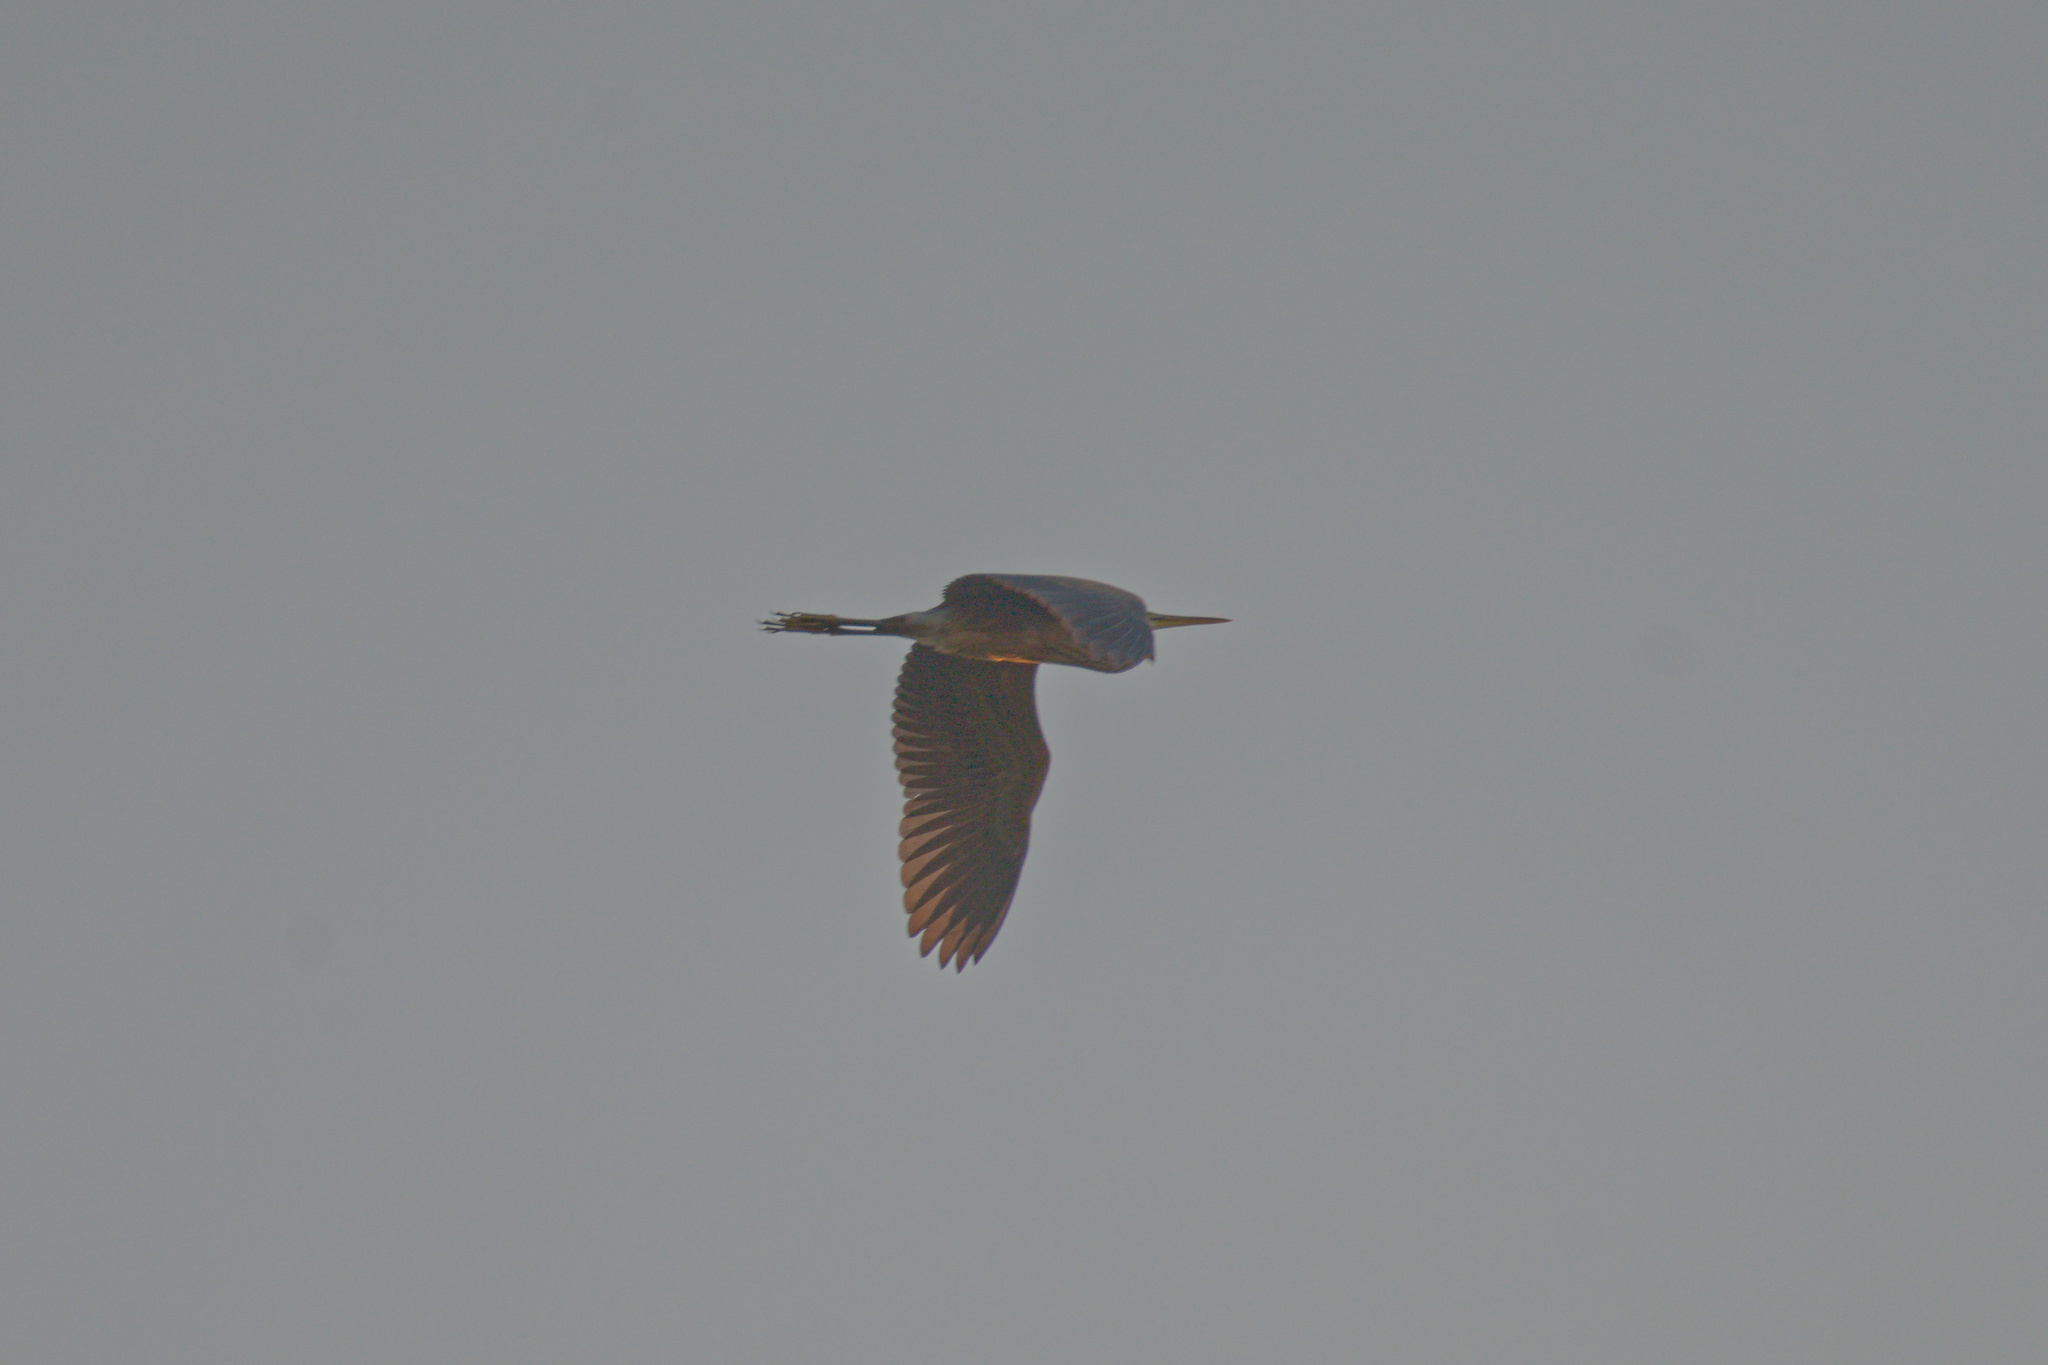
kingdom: Animalia
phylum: Chordata
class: Aves
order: Pelecaniformes
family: Ardeidae
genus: Ardea
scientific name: Ardea purpurea
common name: Purple heron
